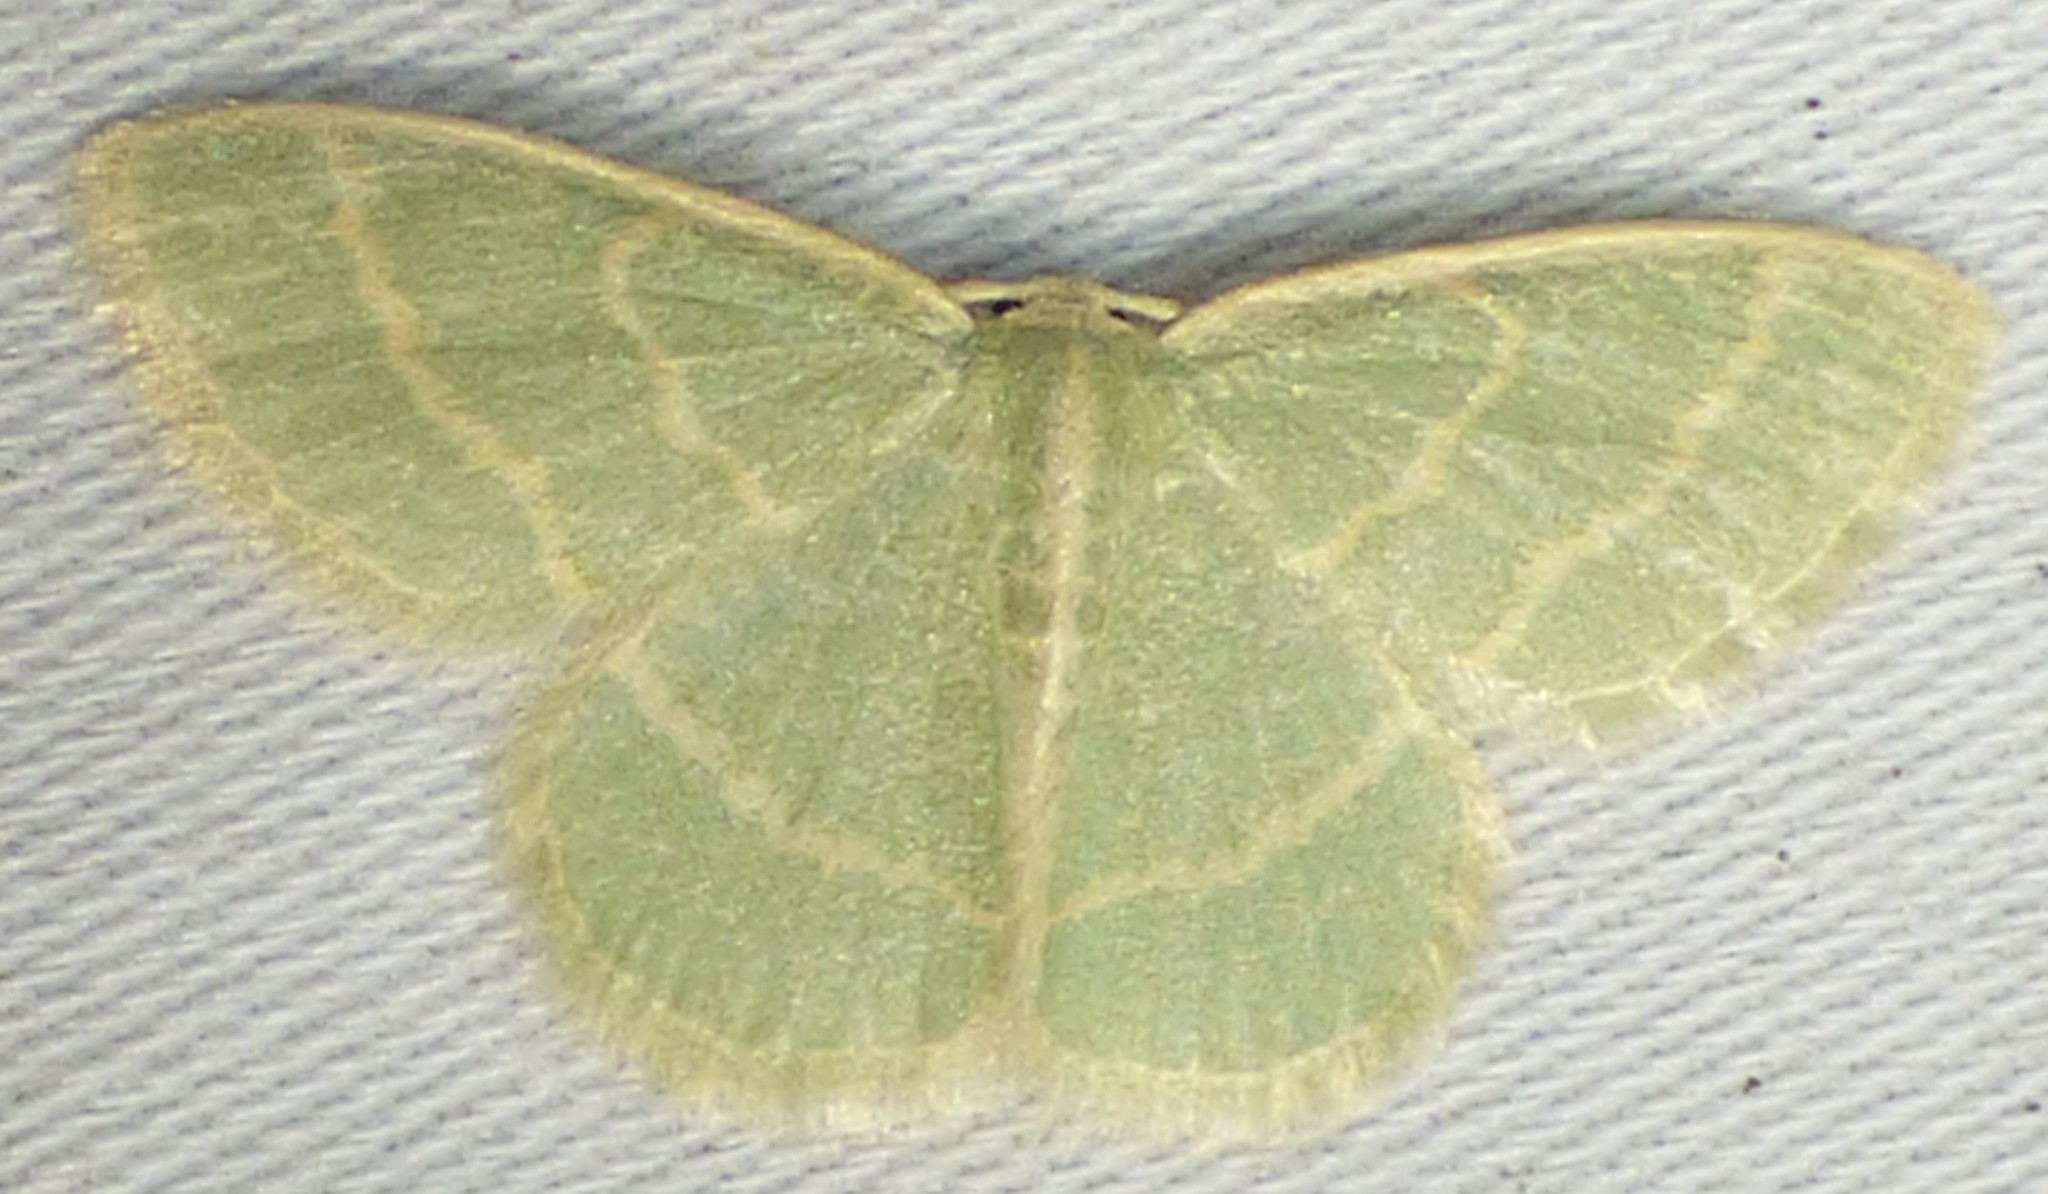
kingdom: Animalia
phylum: Arthropoda
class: Insecta
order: Lepidoptera
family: Geometridae
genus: Chlorochlamys
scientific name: Chlorochlamys chloroleucaria
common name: Blackberry looper
